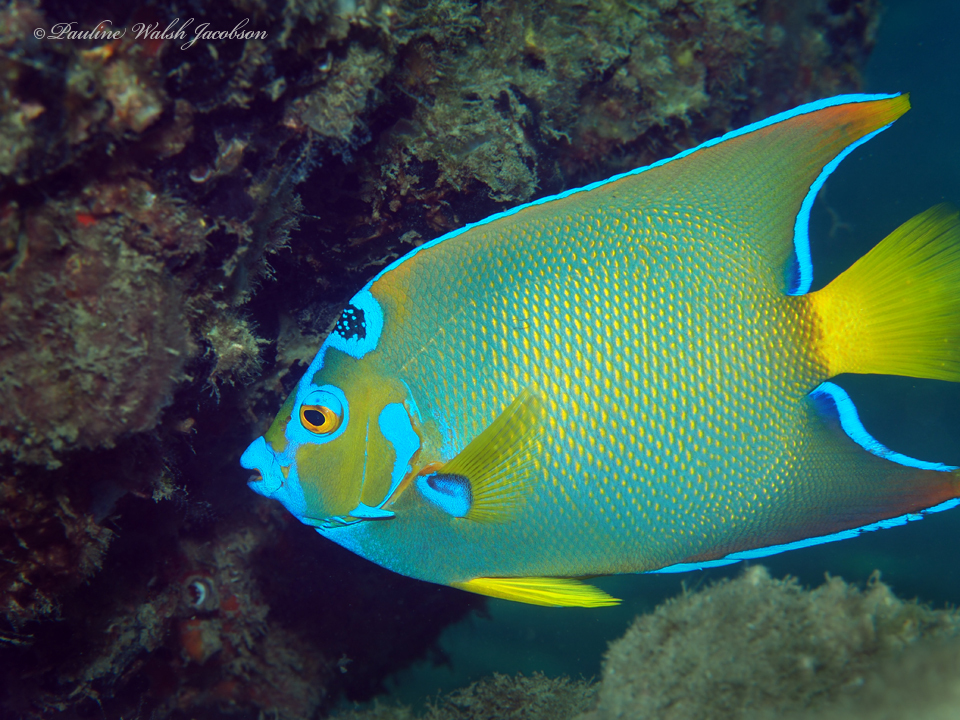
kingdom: Animalia
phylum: Chordata
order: Perciformes
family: Pomacanthidae
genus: Holacanthus
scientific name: Holacanthus ciliaris
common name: Queen angelfish
